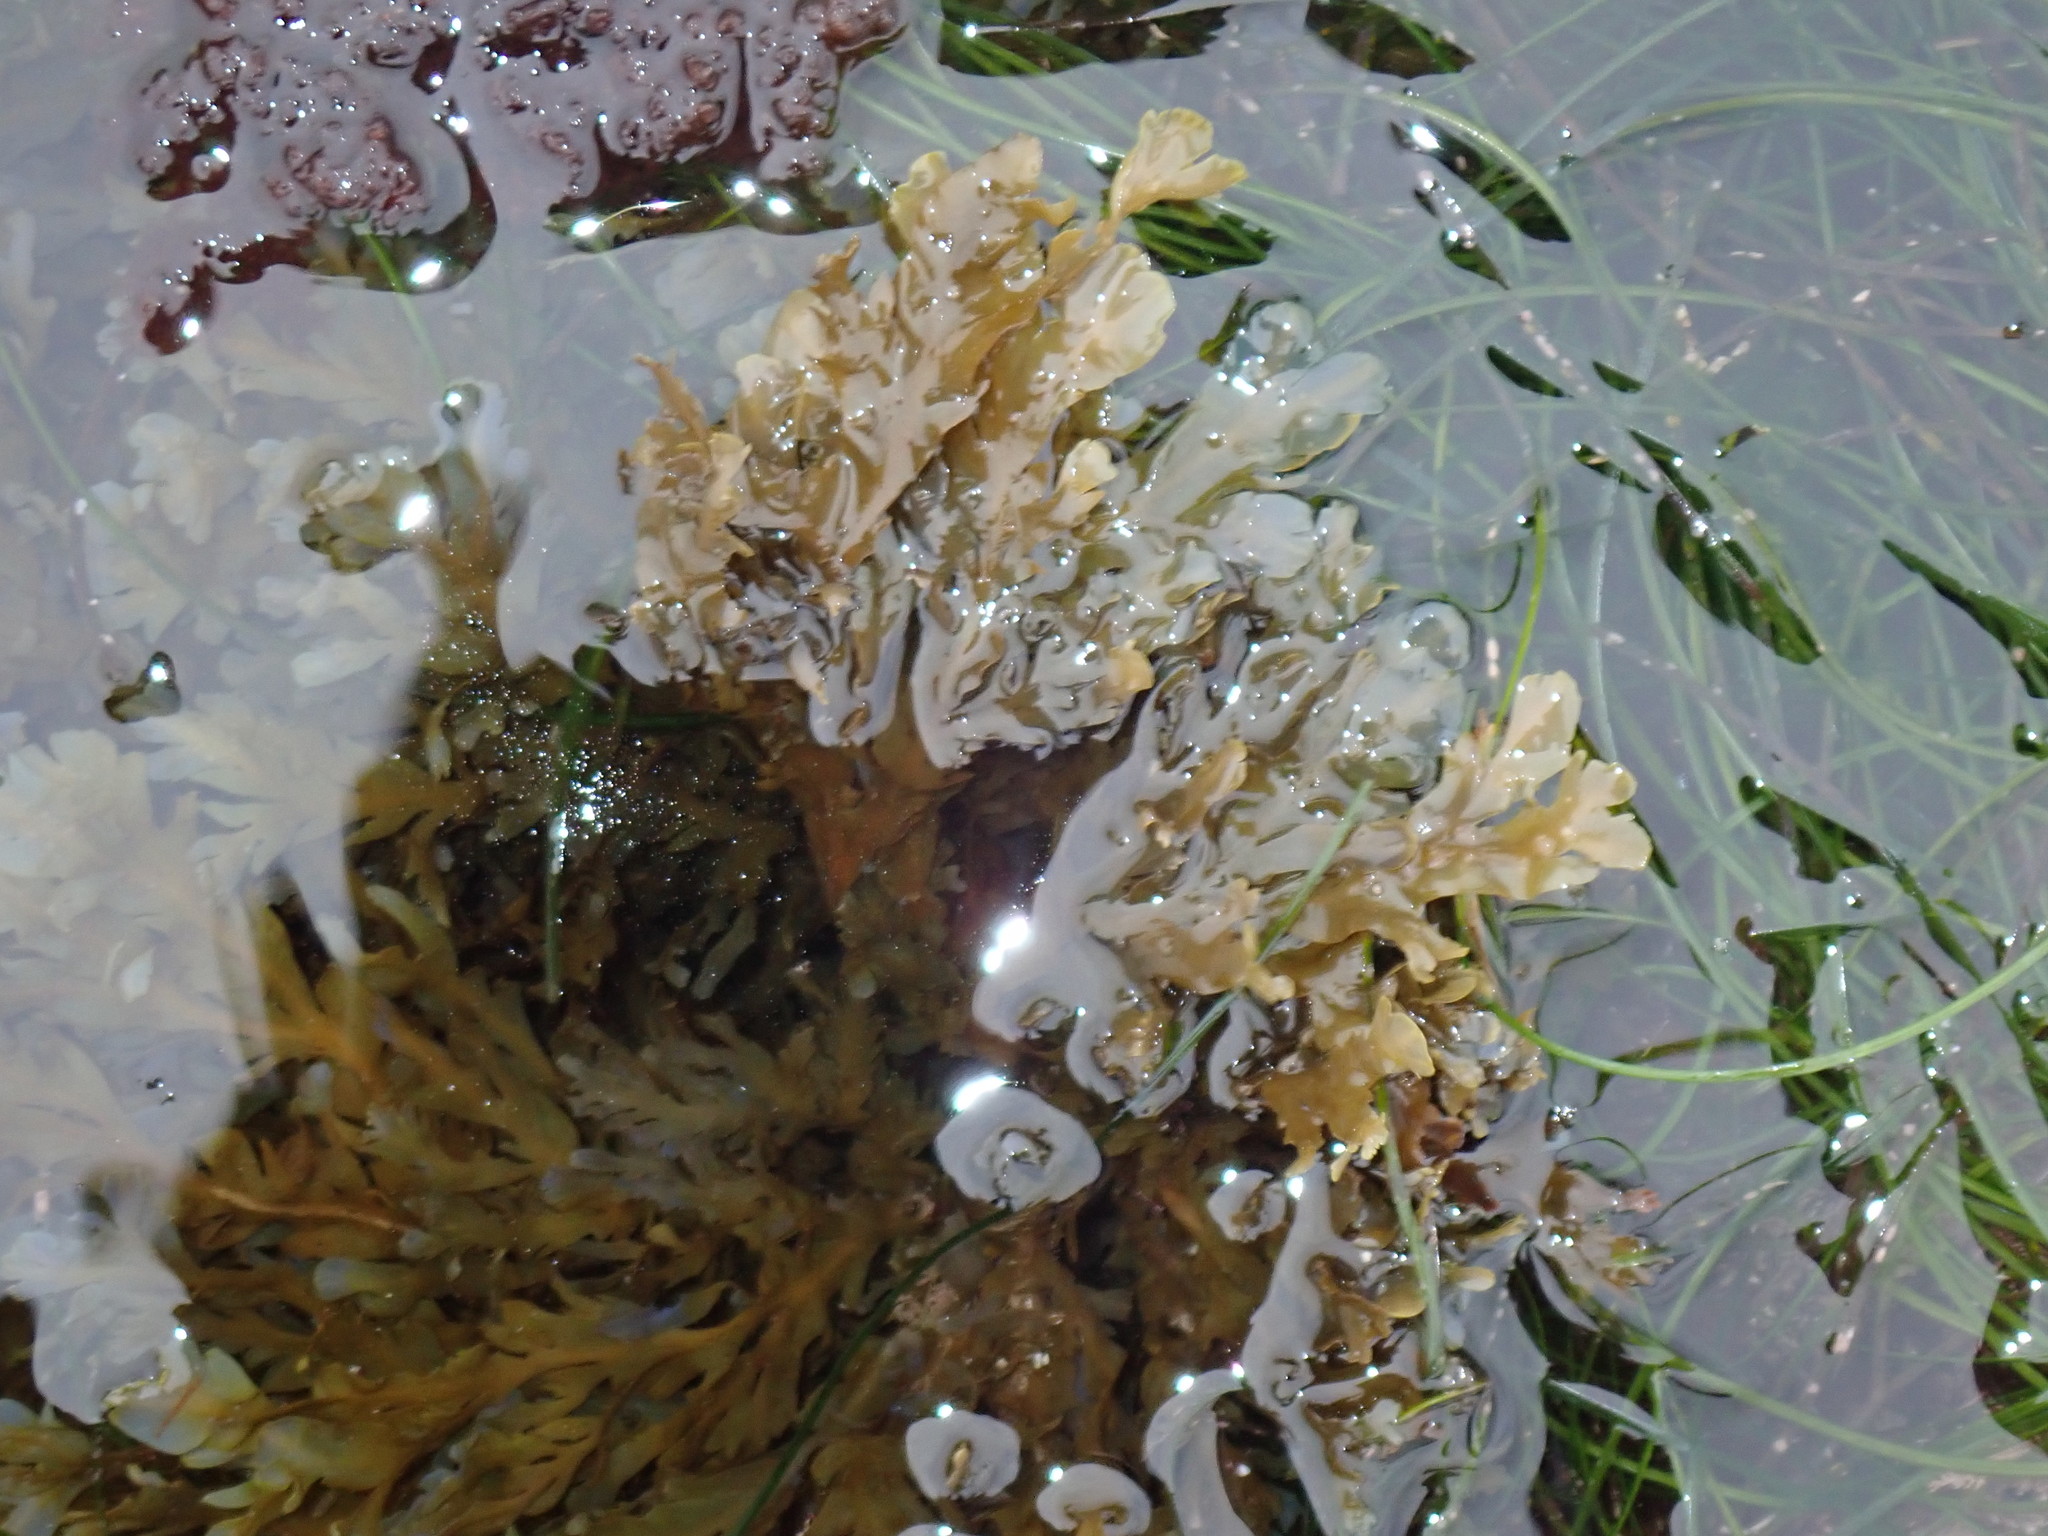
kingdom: Chromista
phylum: Ochrophyta
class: Phaeophyceae
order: Dictyotales
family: Dictyotaceae
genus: Dictyopteris
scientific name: Dictyopteris undulata
